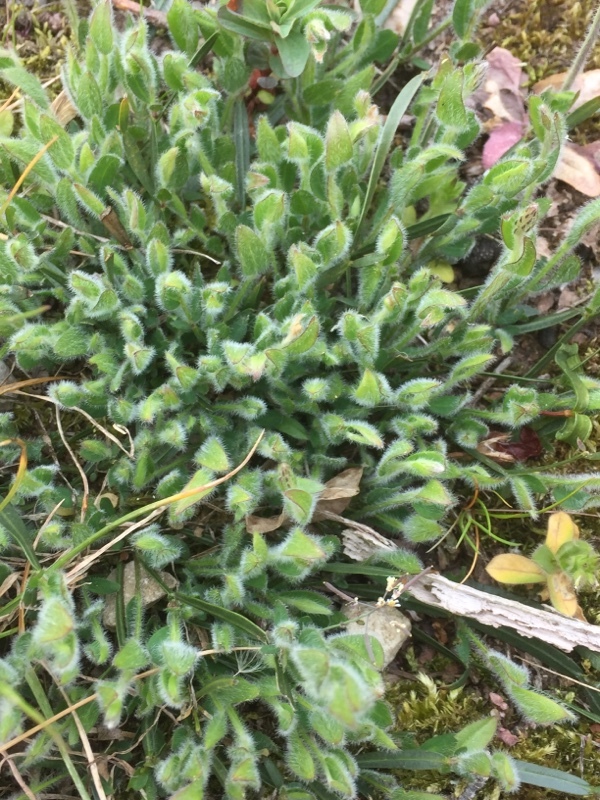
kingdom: Plantae
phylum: Tracheophyta
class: Magnoliopsida
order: Fabales
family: Fabaceae
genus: Genista
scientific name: Genista sagittalis
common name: Winged greenweed
